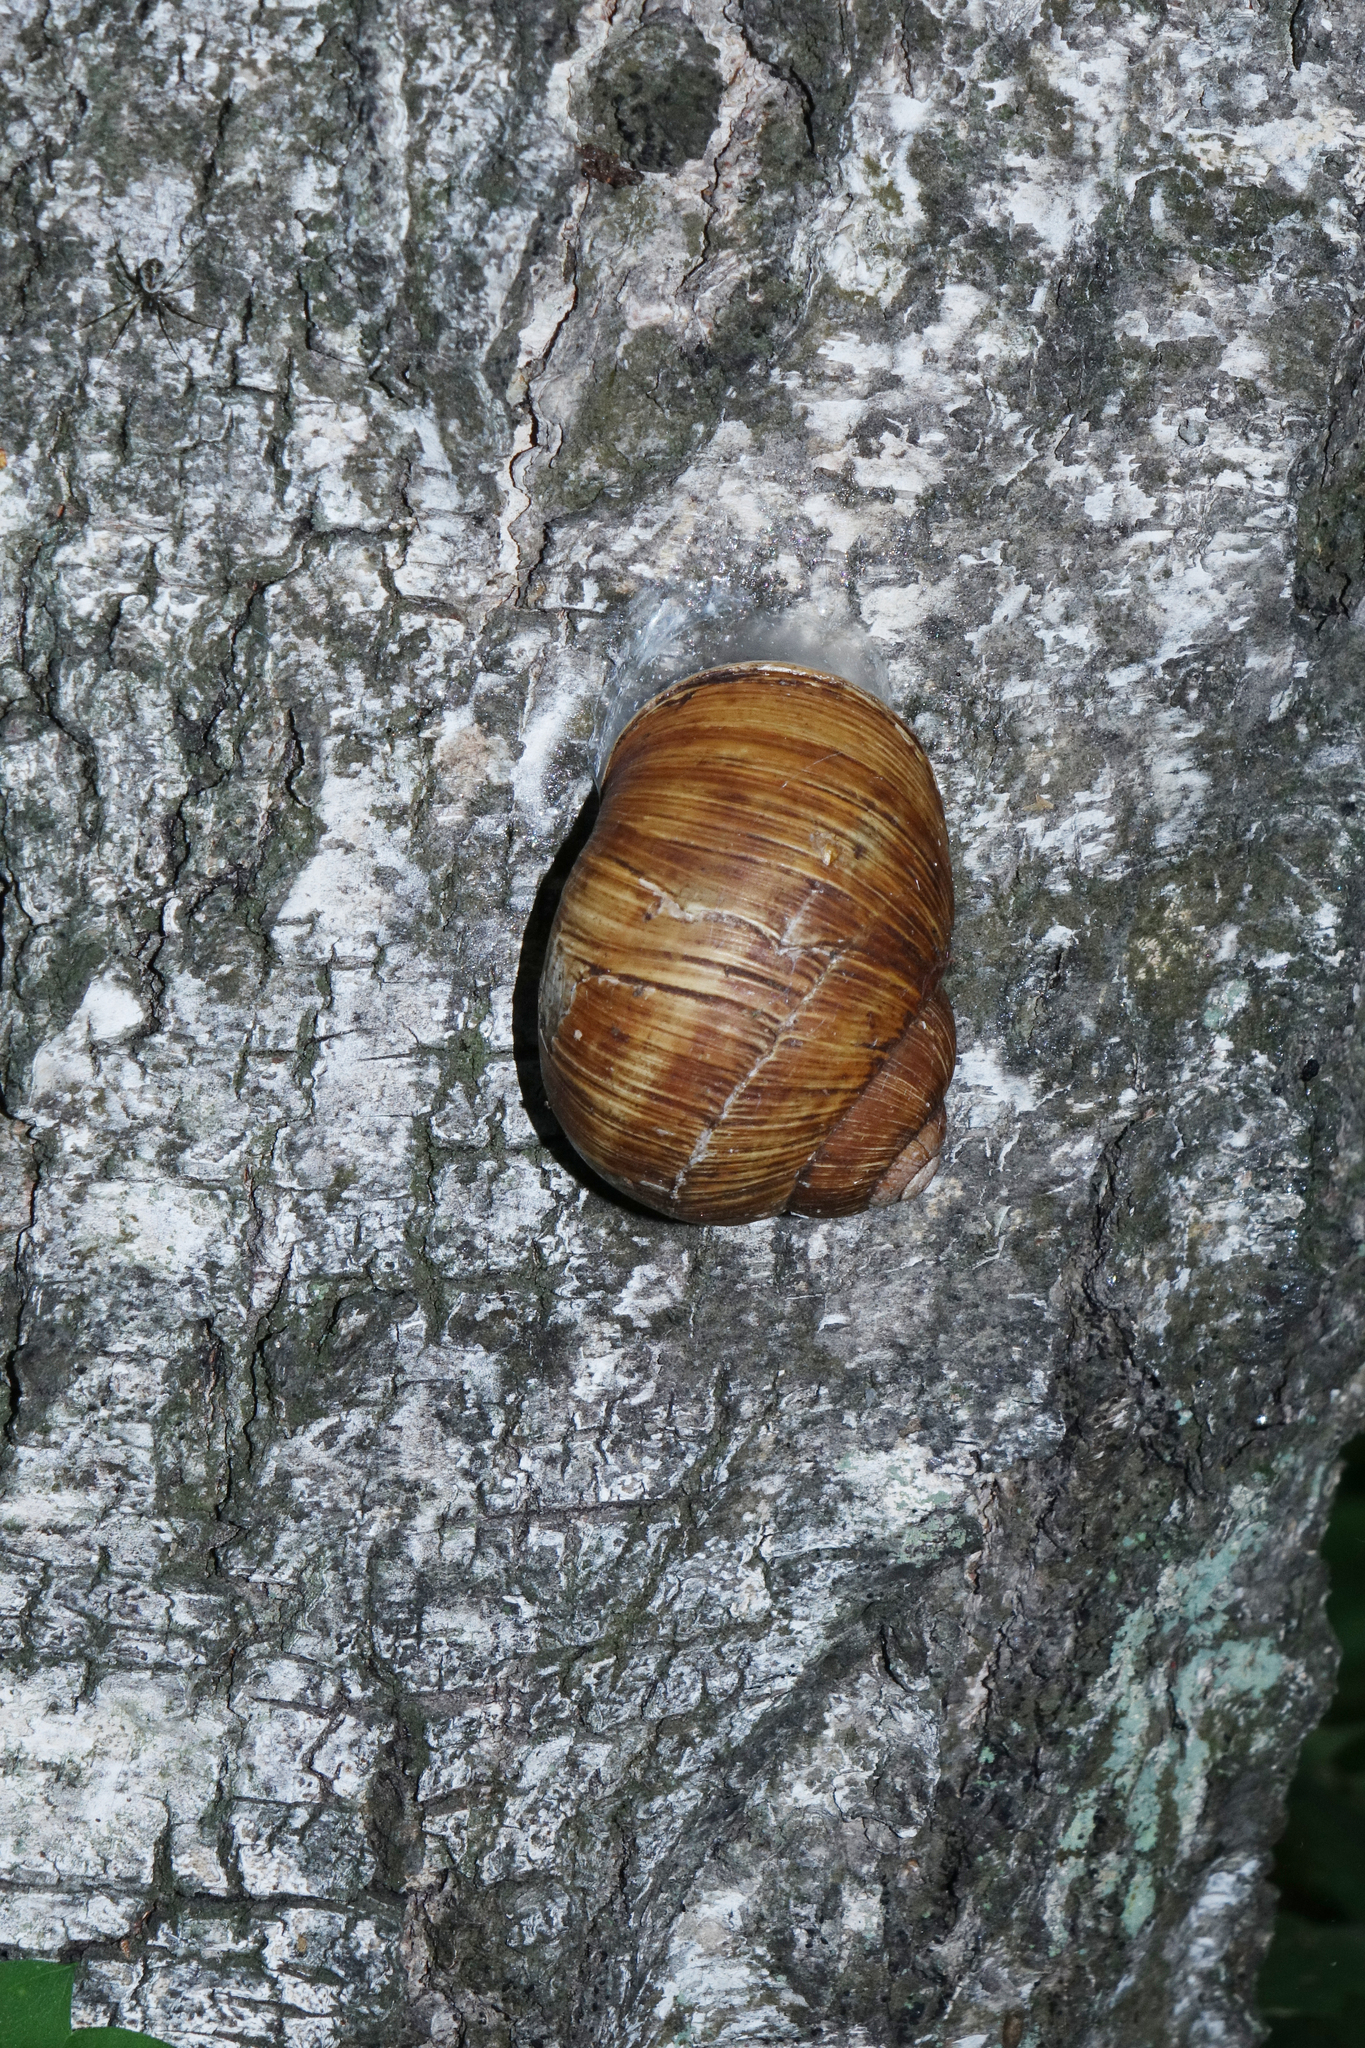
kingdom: Animalia
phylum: Mollusca
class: Gastropoda
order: Stylommatophora
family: Helicidae
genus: Helix
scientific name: Helix pomatia
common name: Roman snail
